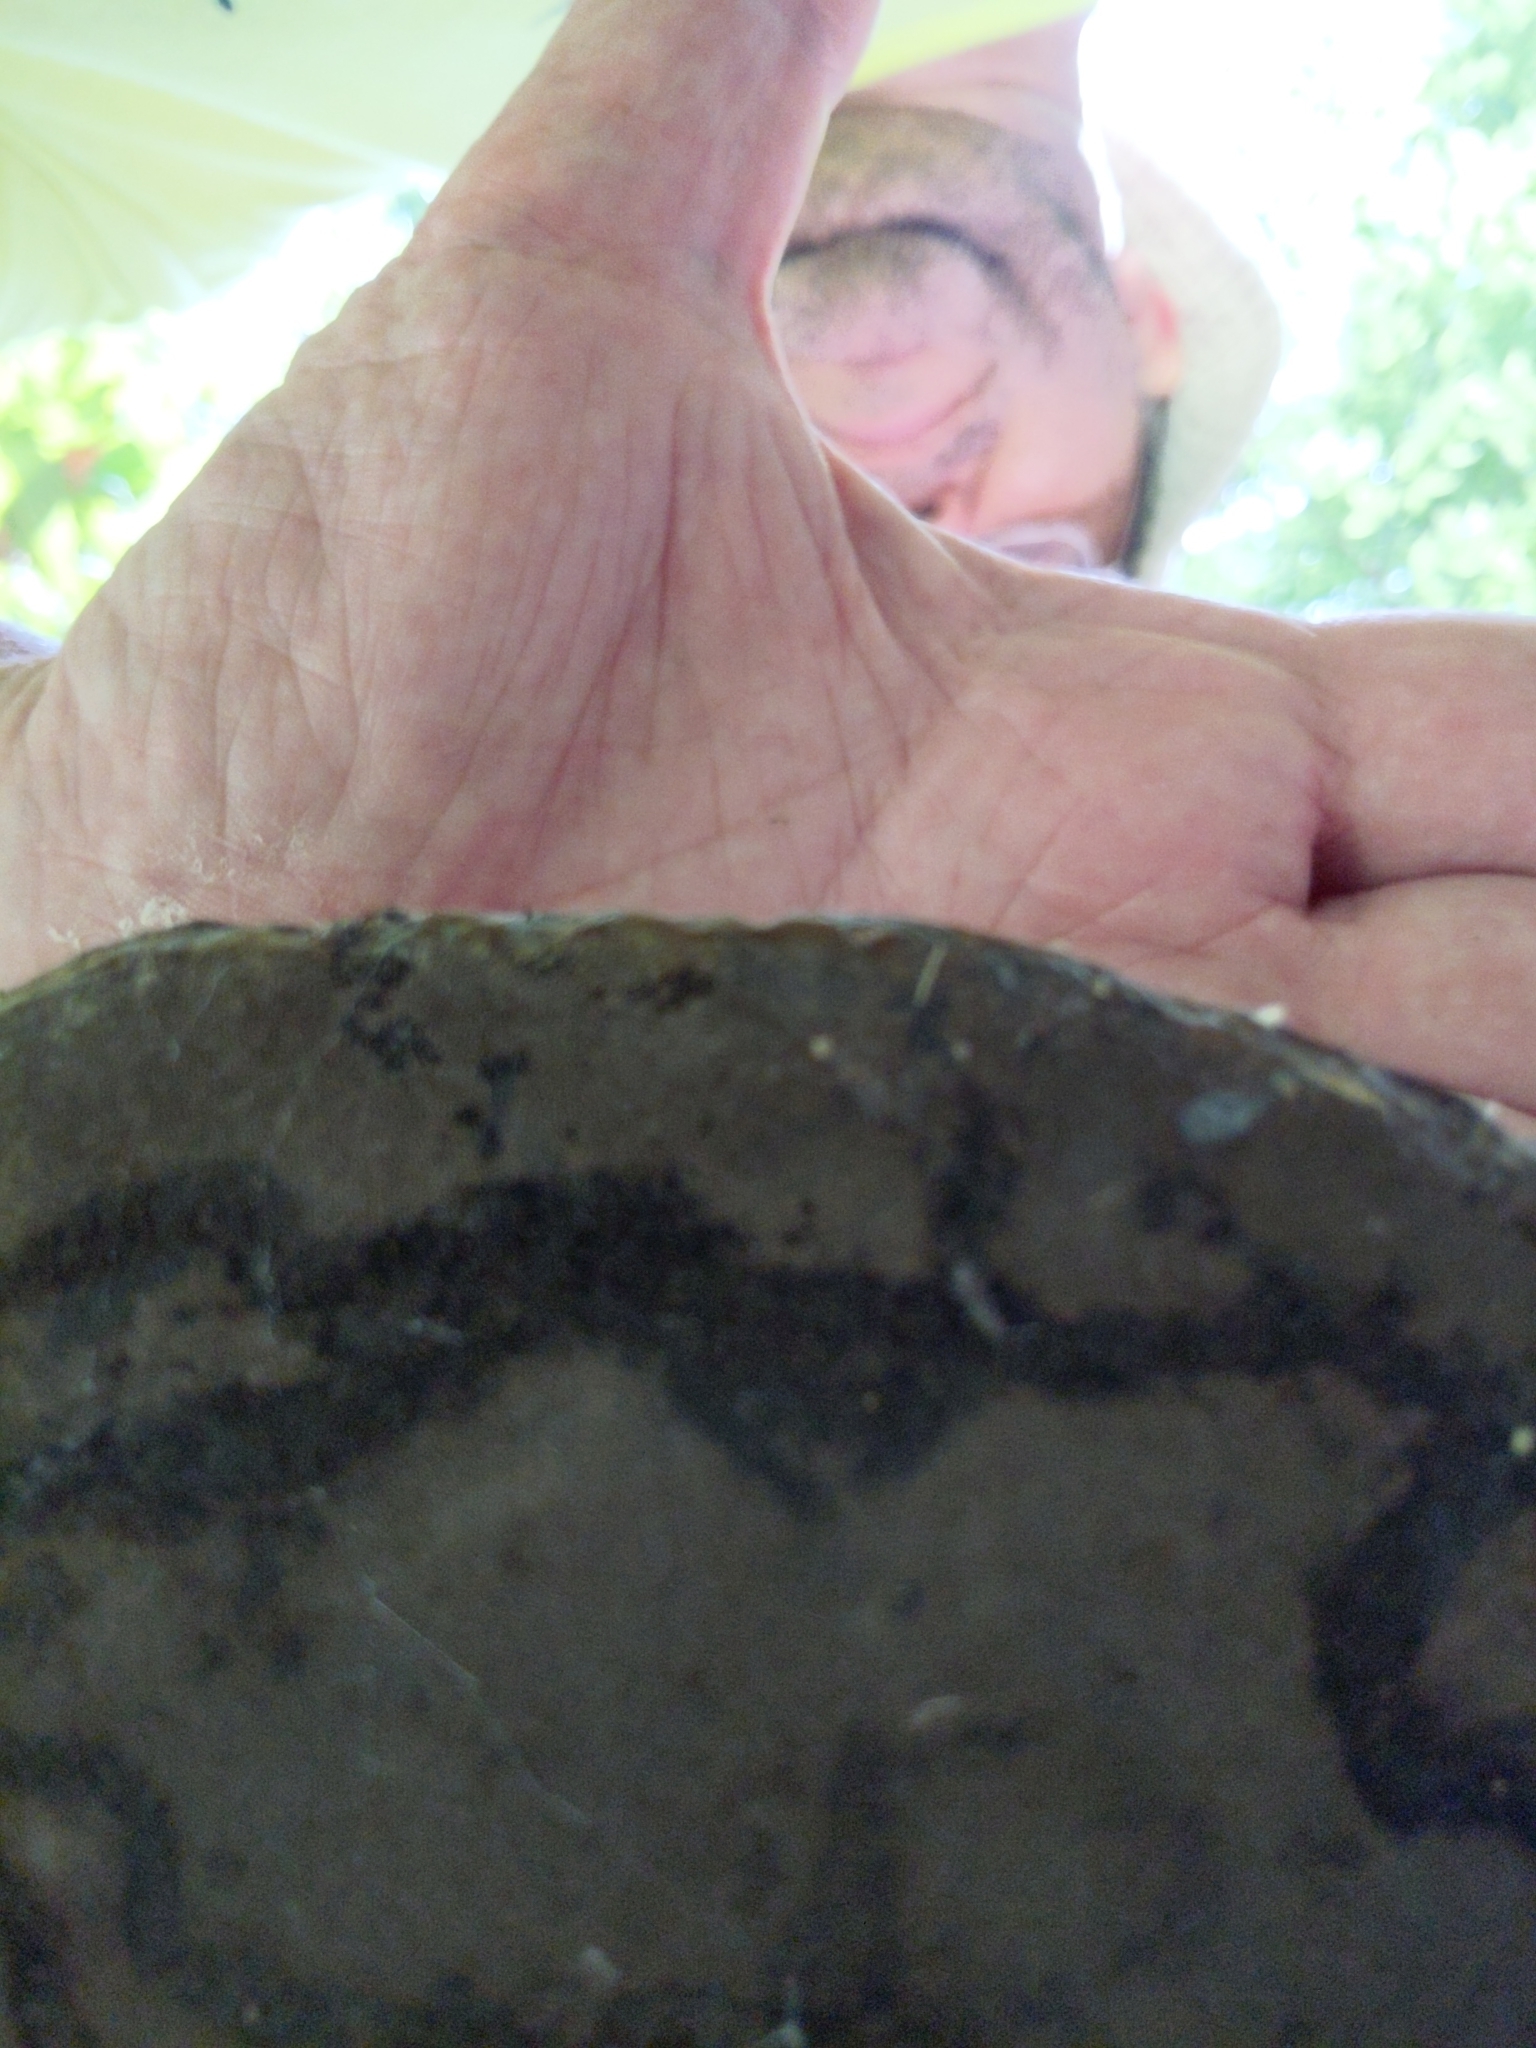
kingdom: Fungi
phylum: Basidiomycota
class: Agaricomycetes
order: Polyporales
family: Polyporaceae
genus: Fomes
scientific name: Fomes fasciatus
